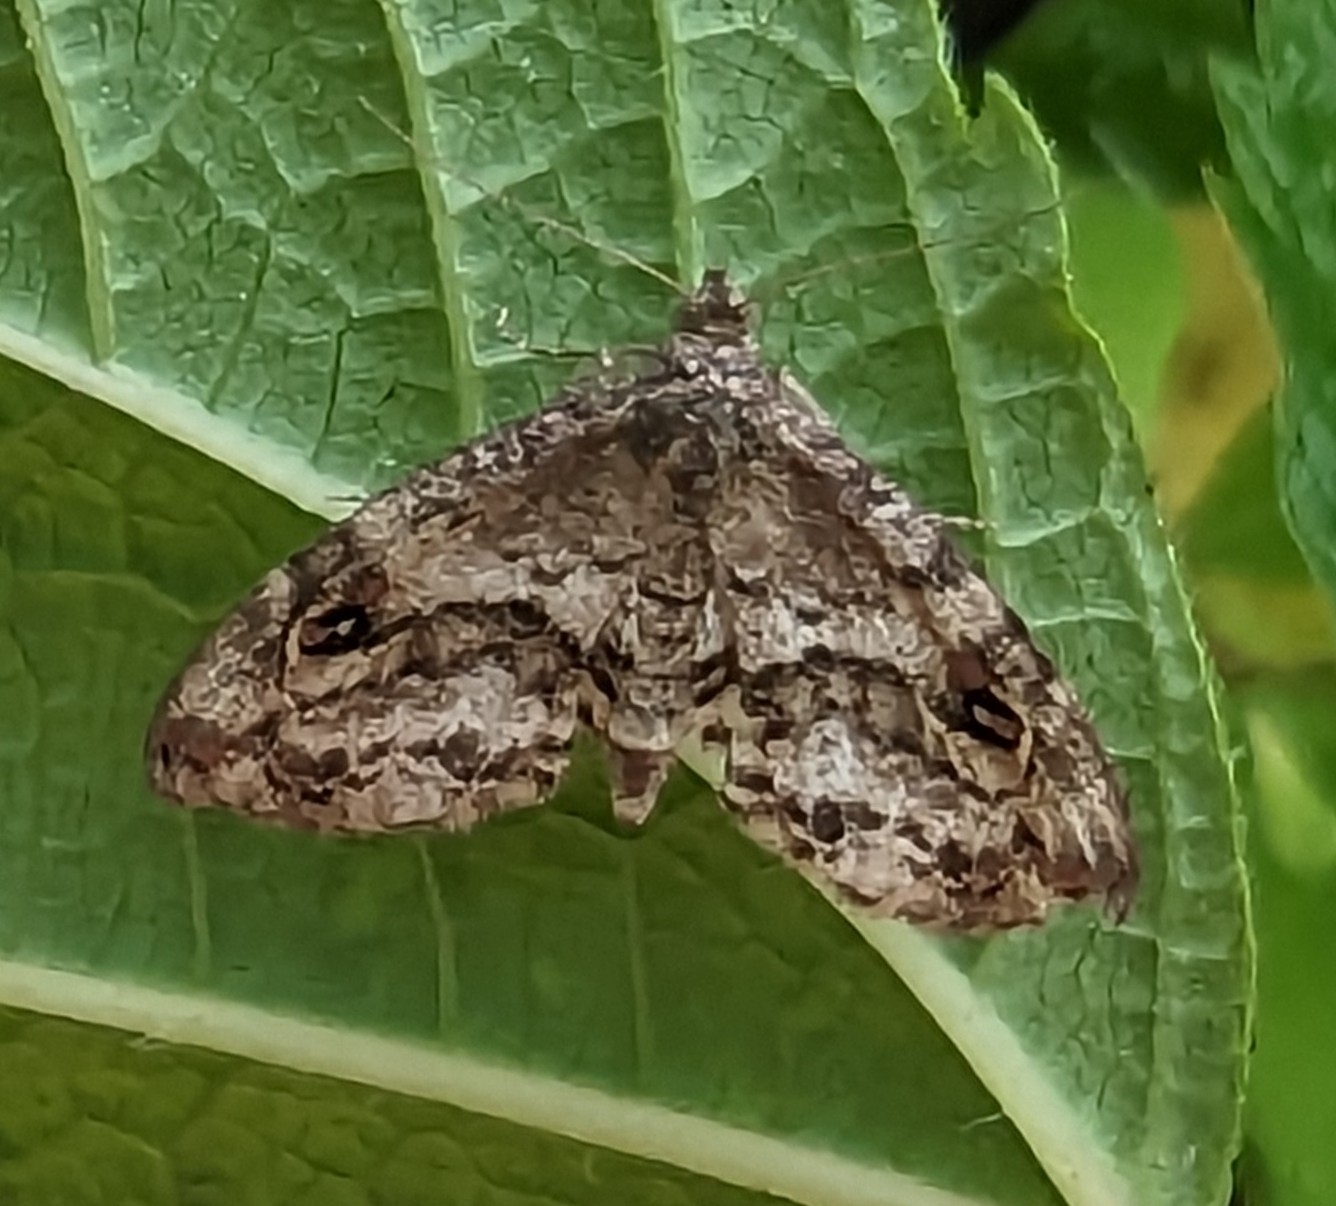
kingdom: Animalia
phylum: Arthropoda
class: Insecta
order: Lepidoptera
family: Erebidae
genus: Melanomma
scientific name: Melanomma auricinctaria
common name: Gold-lined melanomma moth
